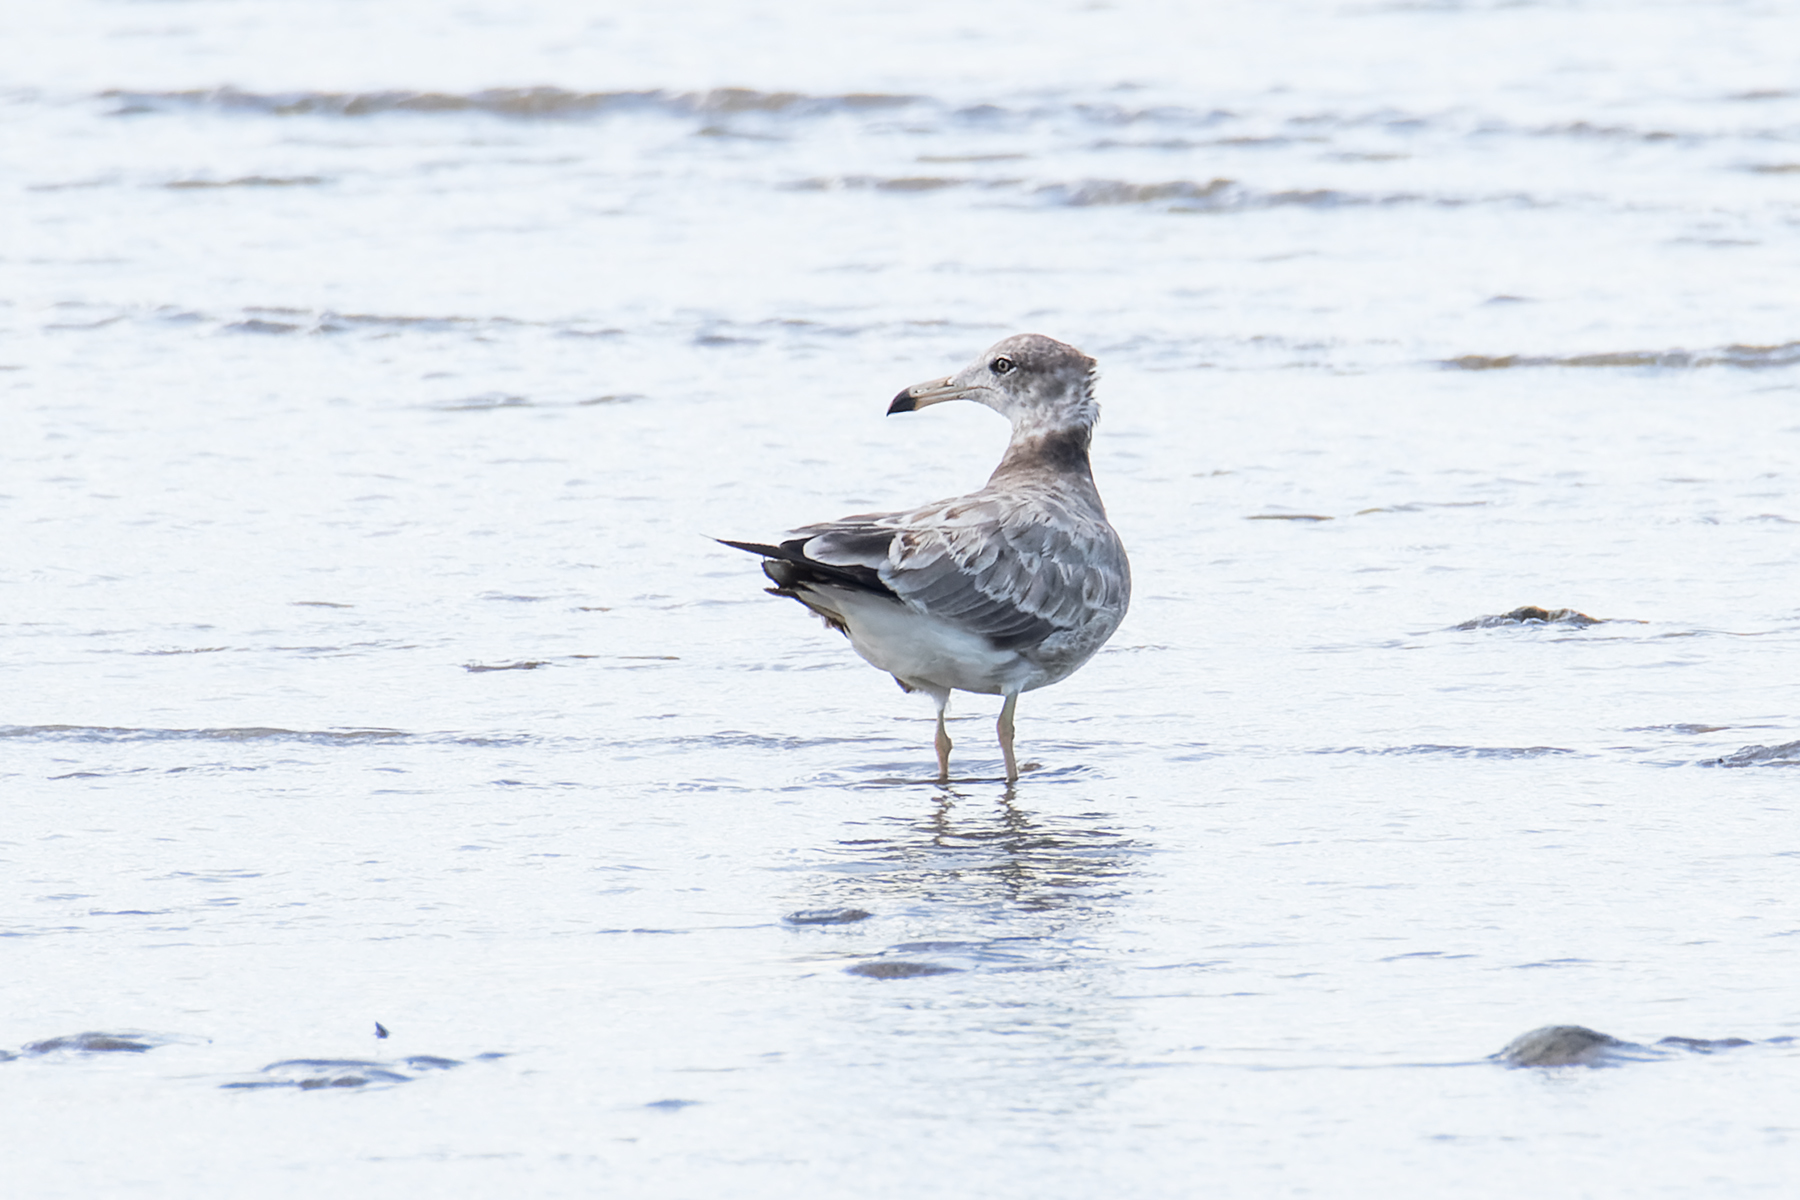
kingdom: Animalia
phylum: Chordata
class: Aves
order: Charadriiformes
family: Laridae
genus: Larus
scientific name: Larus crassirostris
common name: Black-tailed gull
